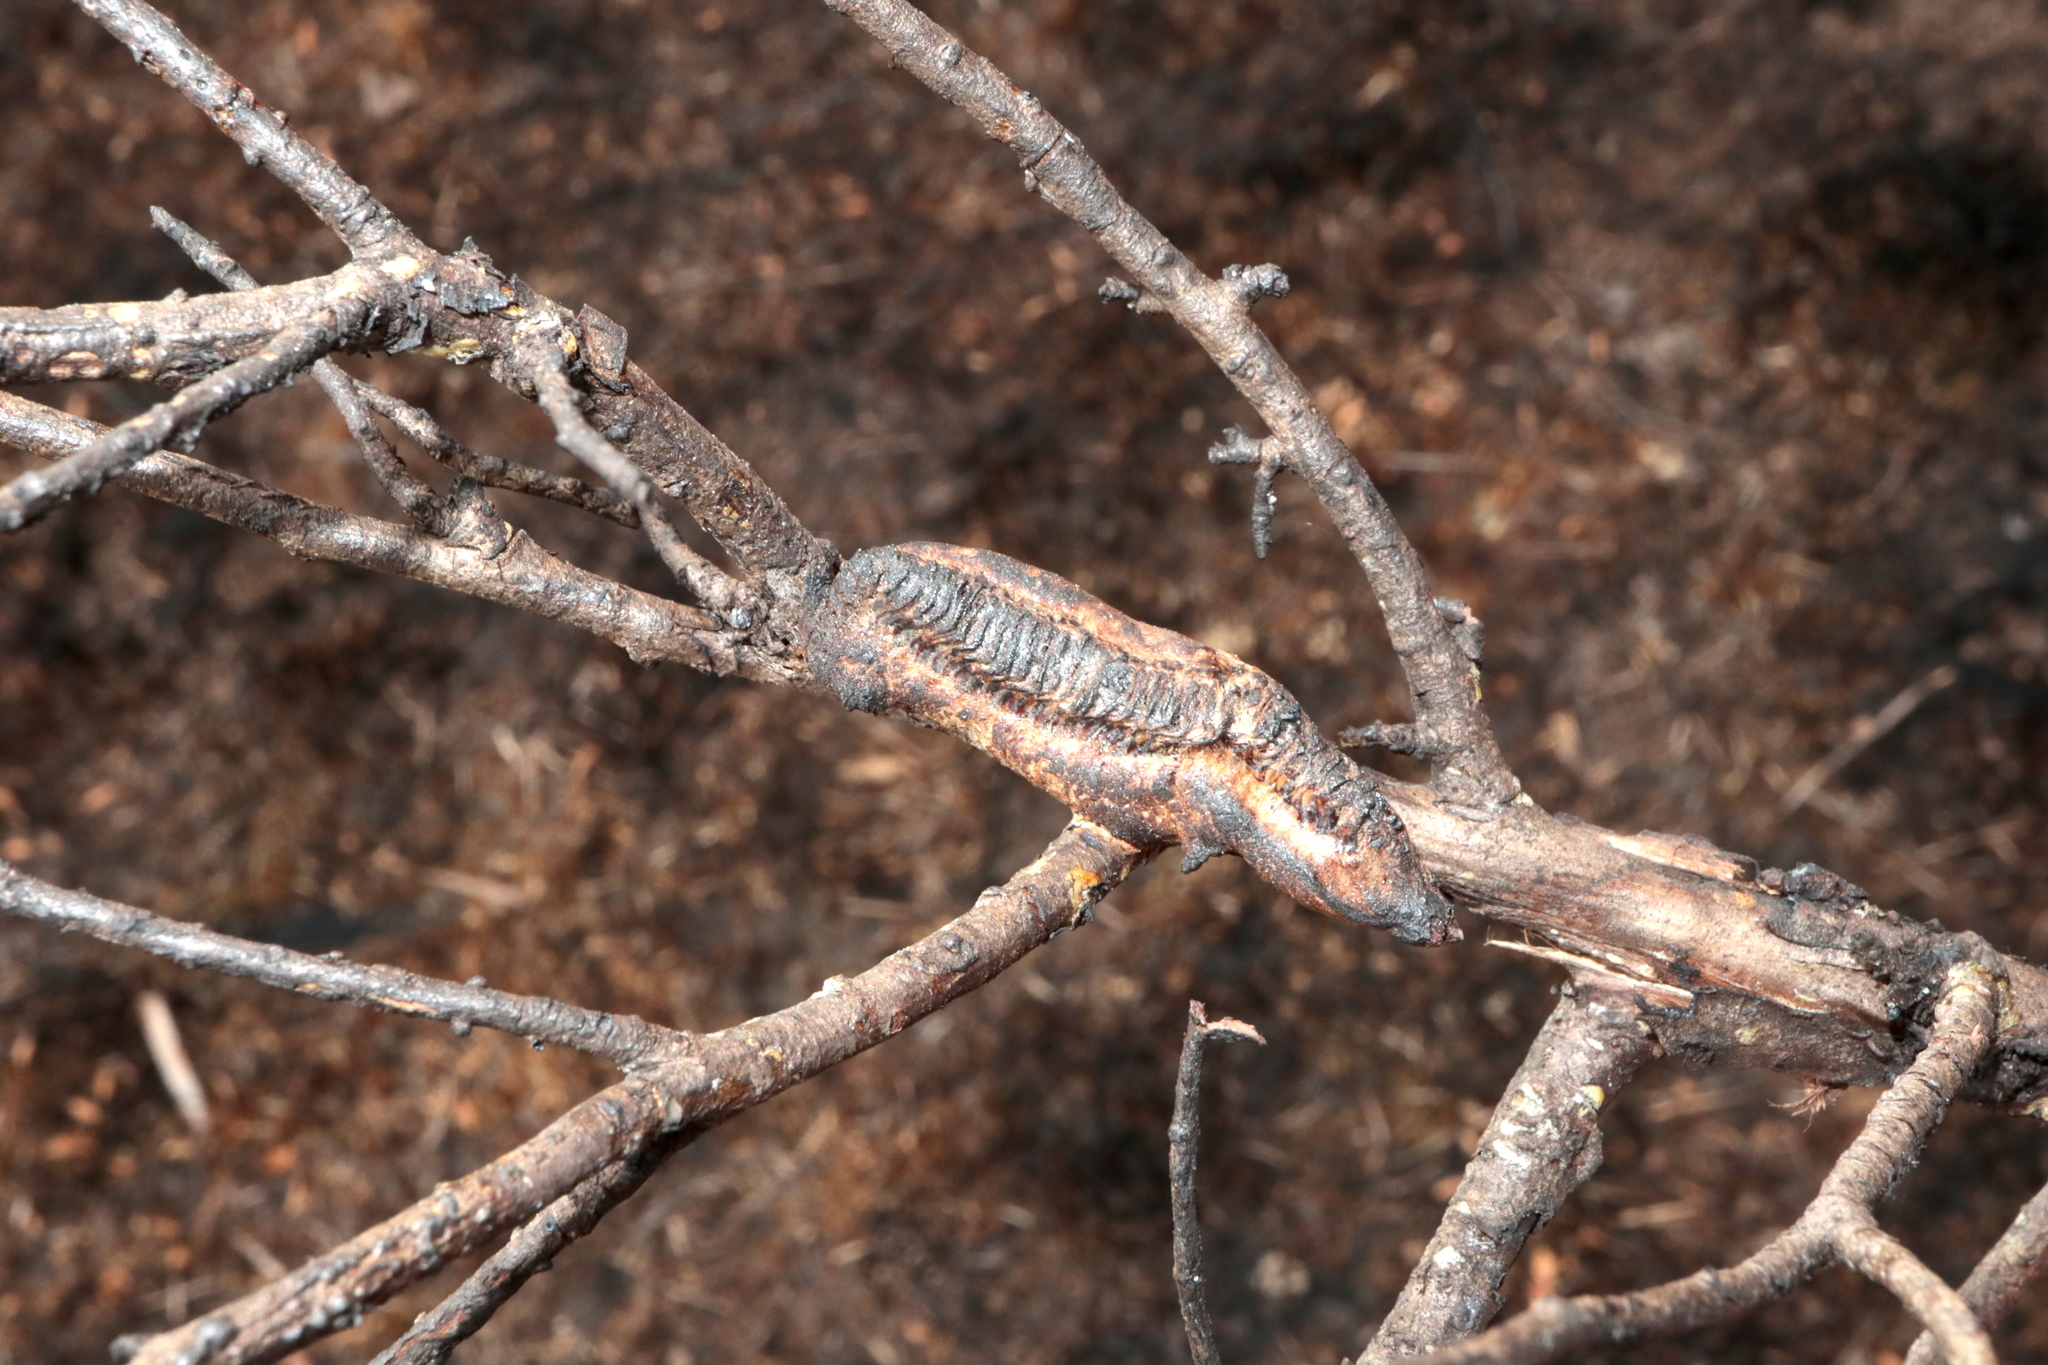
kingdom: Animalia
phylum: Arthropoda
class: Insecta
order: Mantodea
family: Mantidae
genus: Tenodera
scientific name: Tenodera angustipennis
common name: Asian mantis
